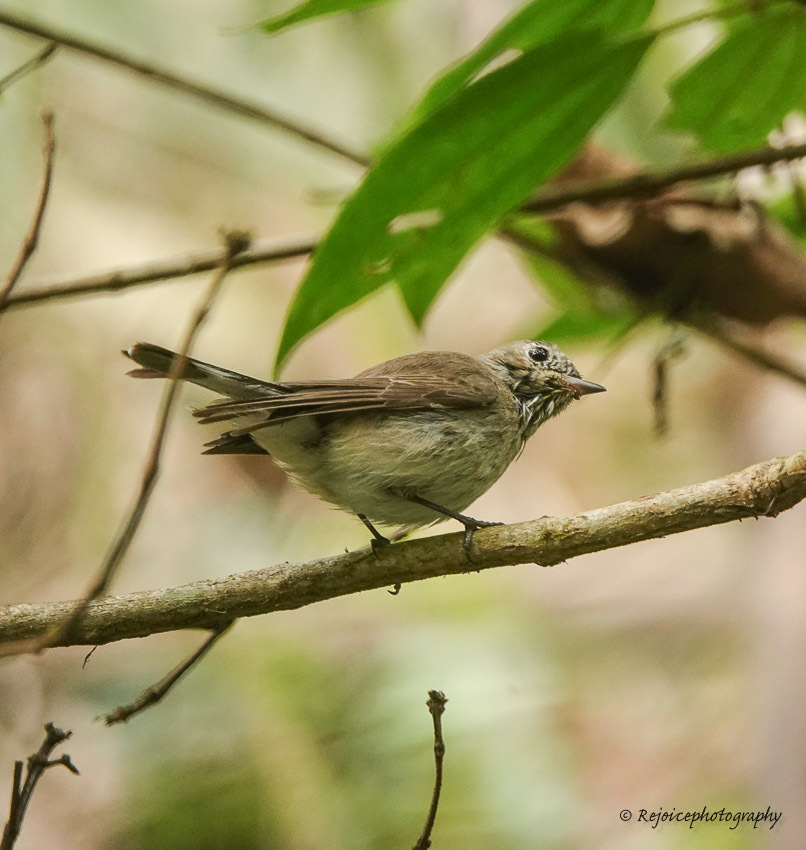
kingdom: Animalia
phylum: Chordata
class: Aves
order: Passeriformes
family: Muscicapidae
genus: Ficedula
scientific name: Ficedula albicilla
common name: Taiga flycatcher
